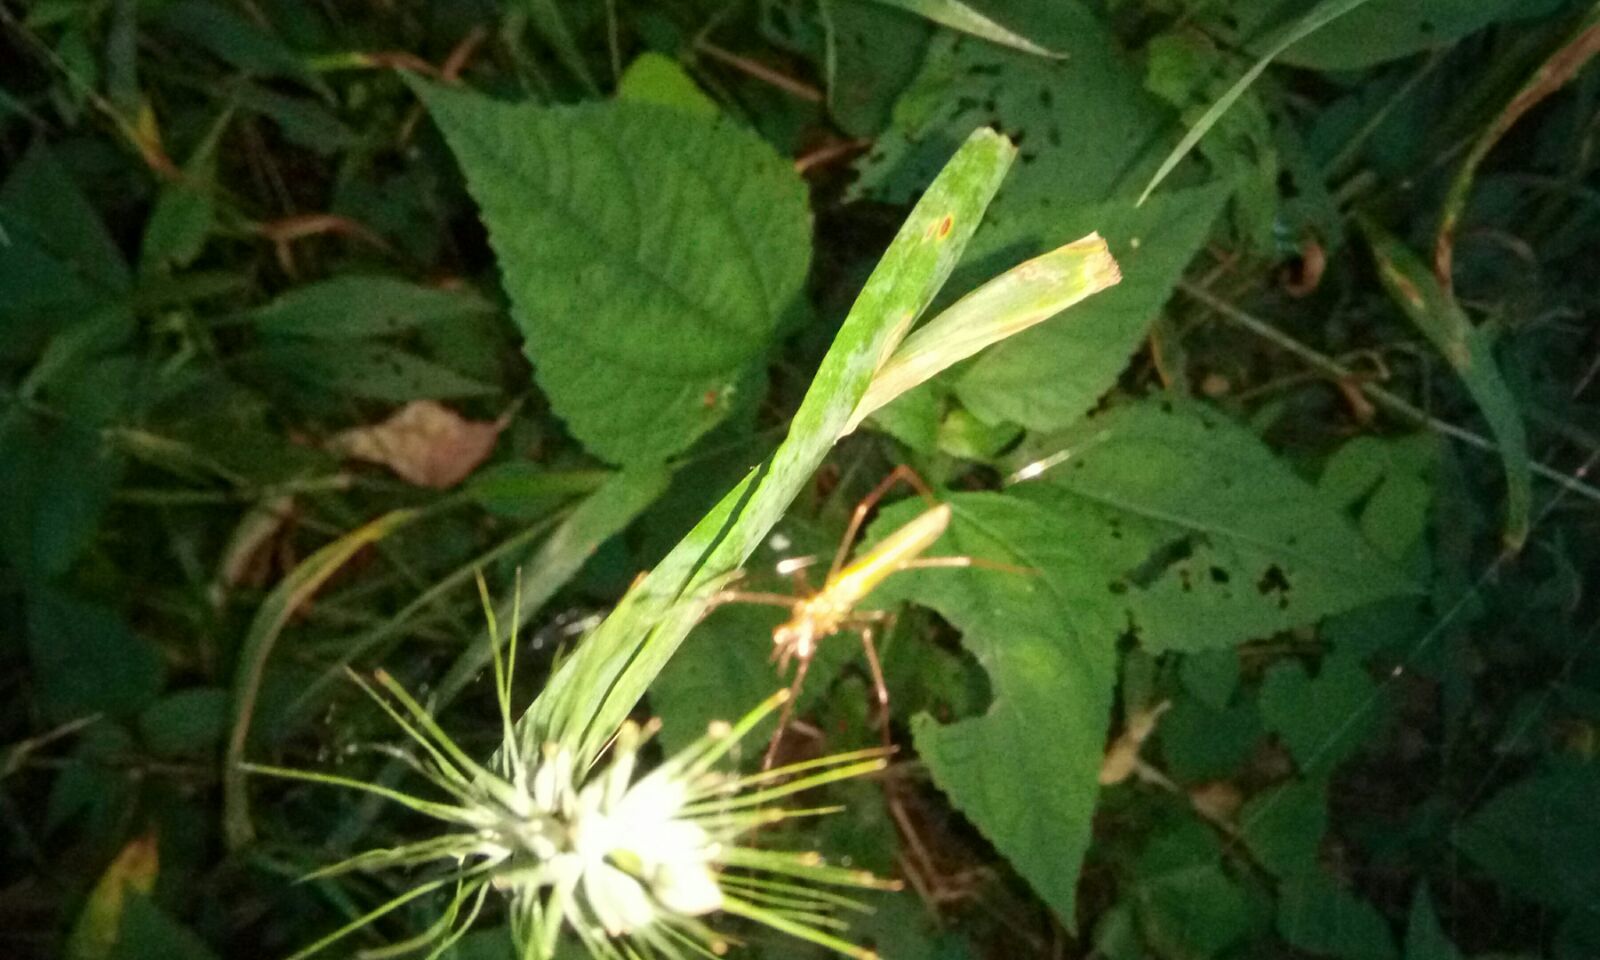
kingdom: Animalia
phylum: Arthropoda
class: Arachnida
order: Araneae
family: Tetragnathidae
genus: Tetragnatha
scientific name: Tetragnatha
